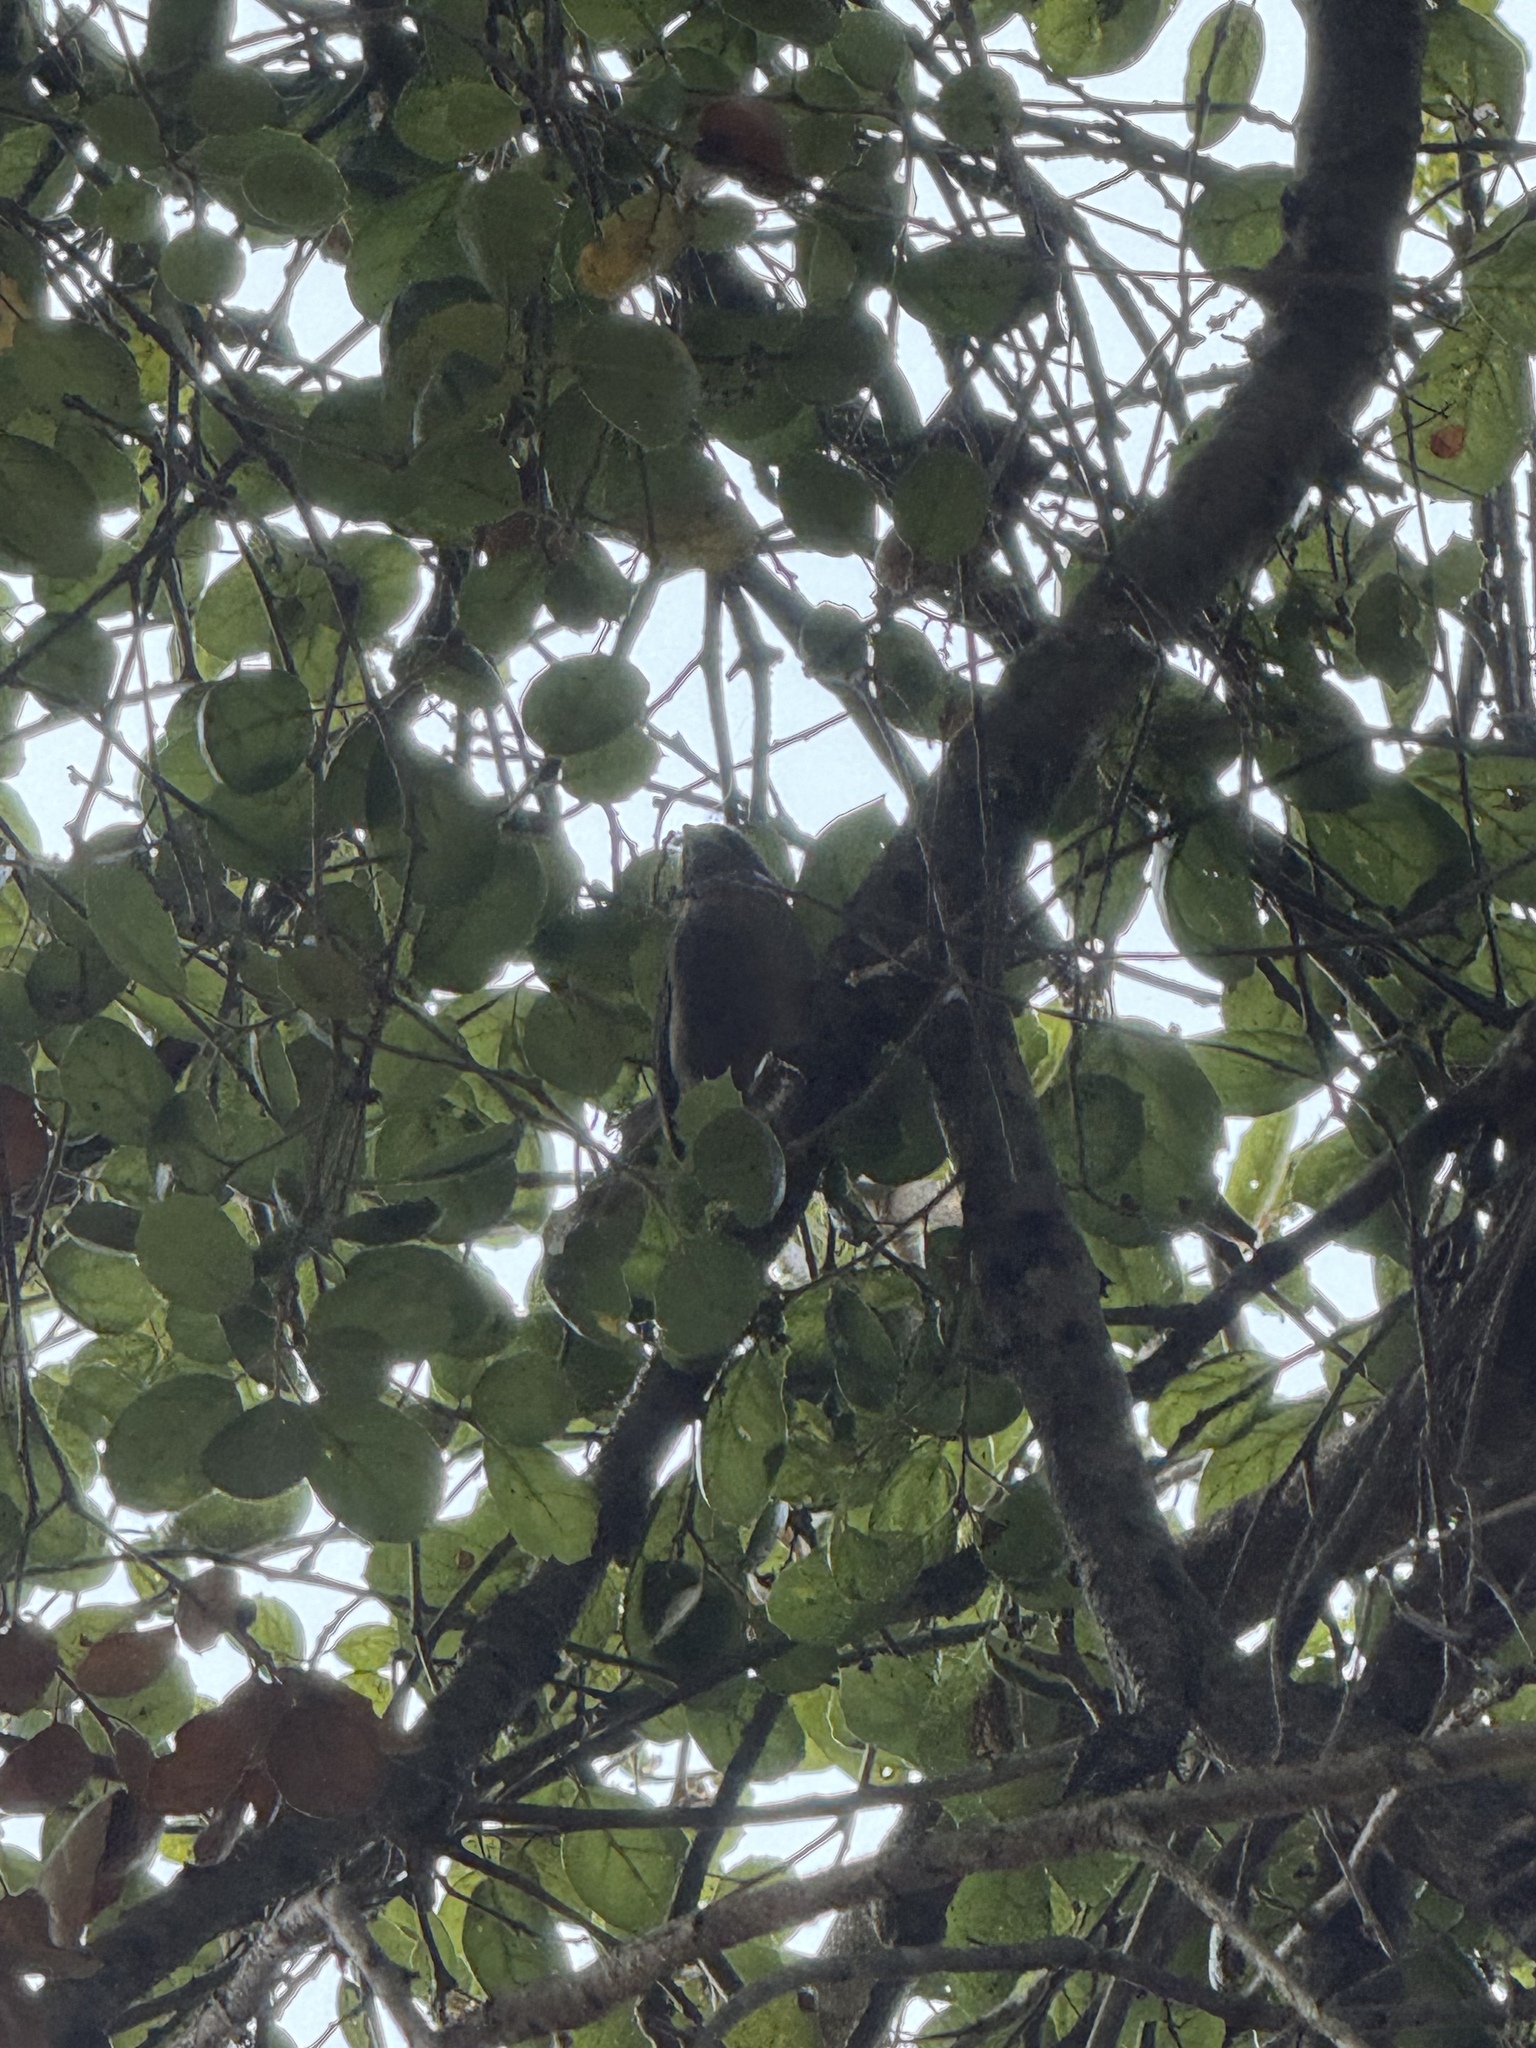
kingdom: Animalia
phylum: Chordata
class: Aves
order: Passeriformes
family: Aegithalidae
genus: Psaltriparus
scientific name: Psaltriparus minimus
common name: American bushtit
